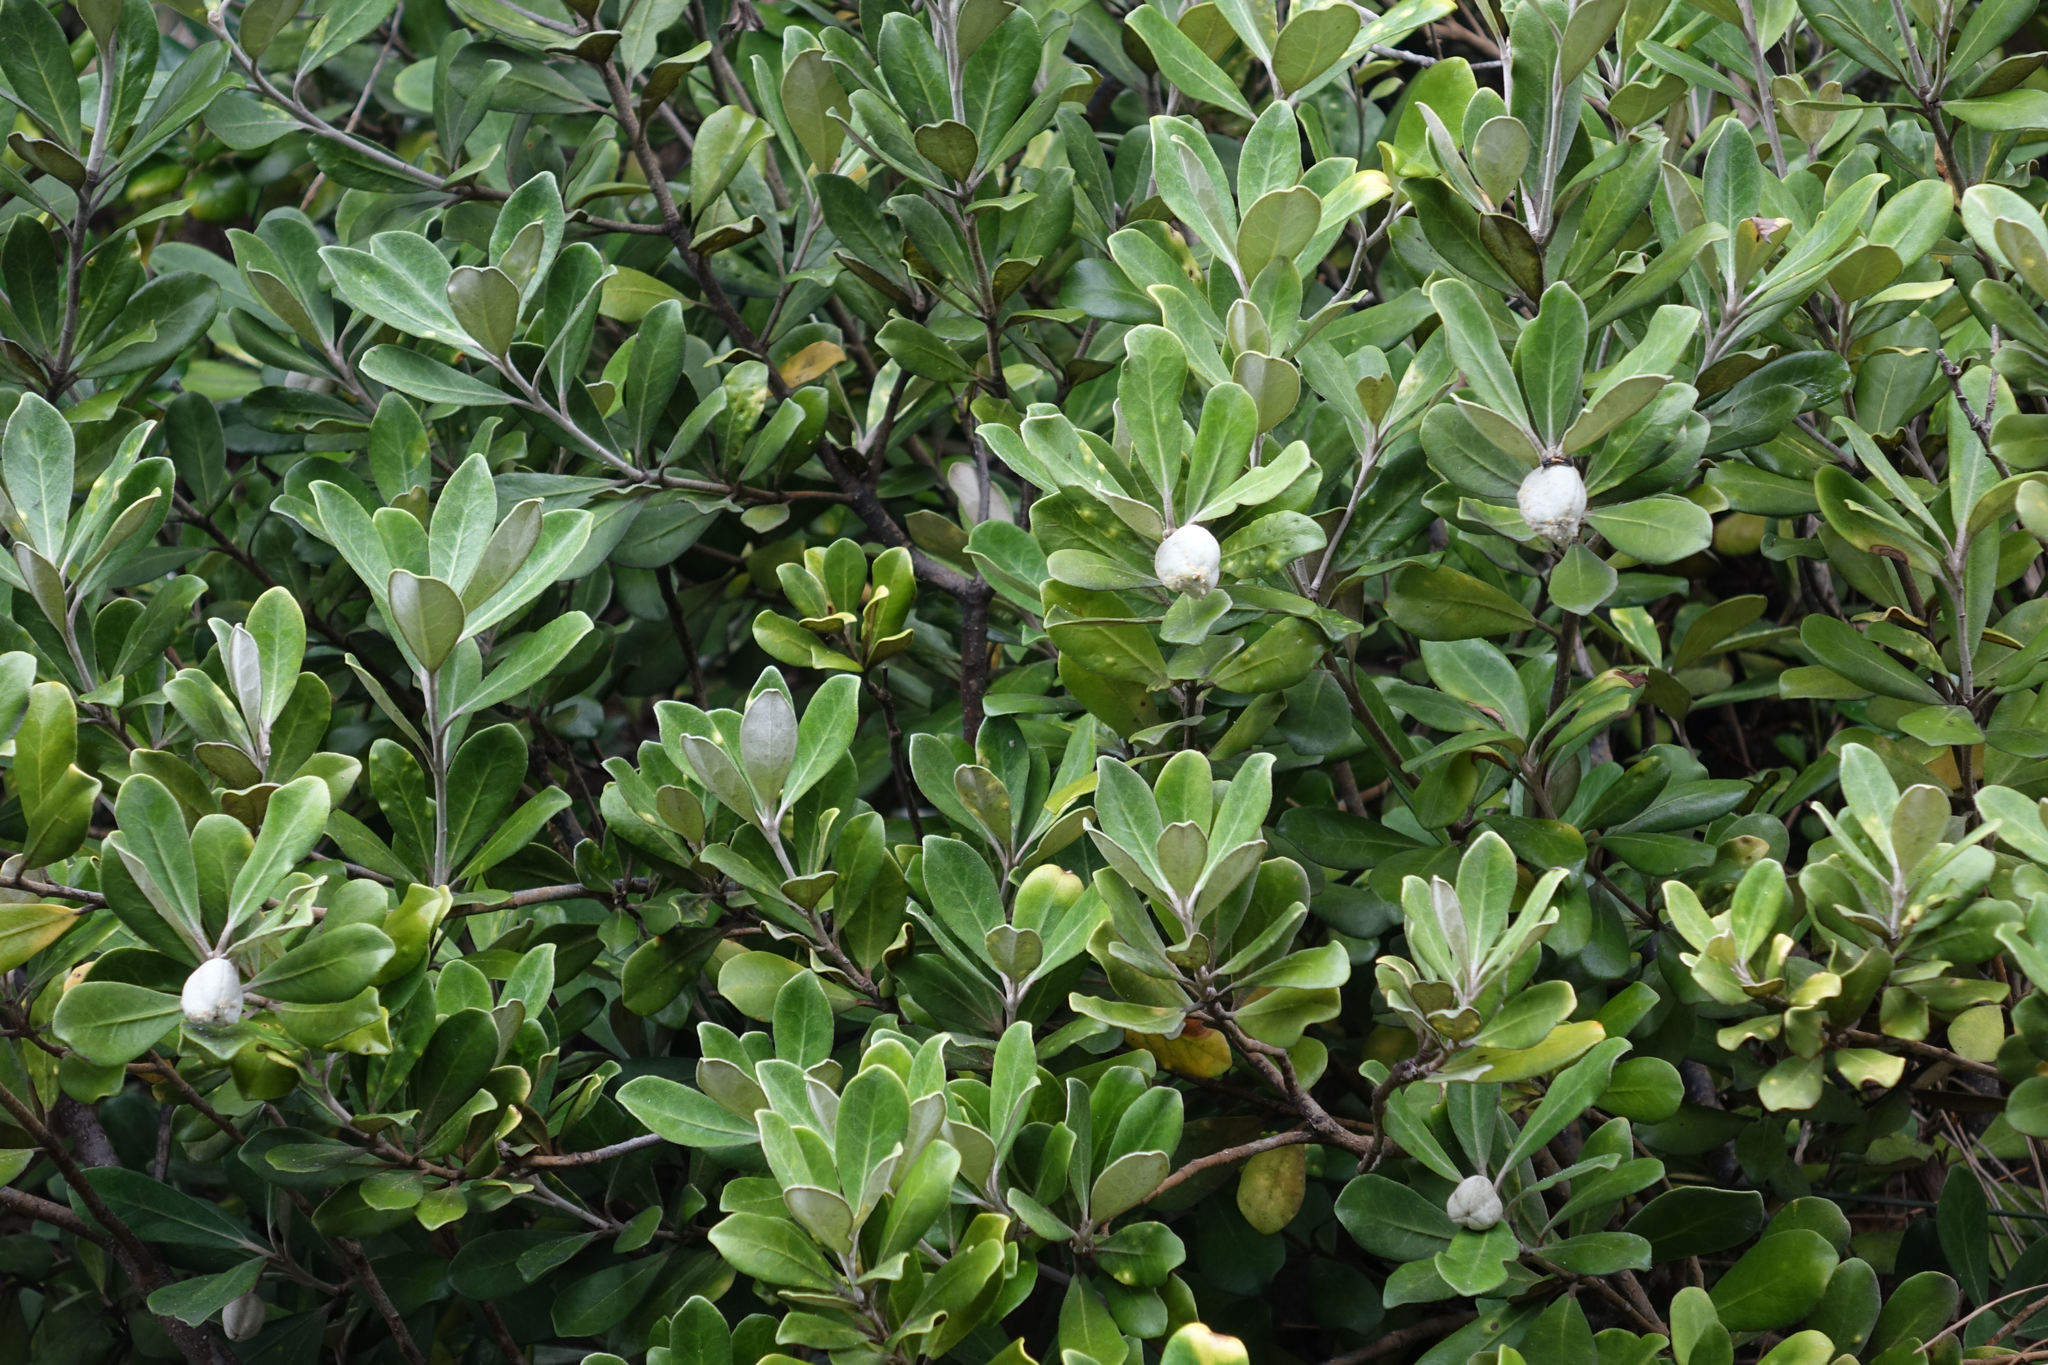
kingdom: Plantae
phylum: Tracheophyta
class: Magnoliopsida
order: Apiales
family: Pittosporaceae
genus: Pittosporum
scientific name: Pittosporum crassifolium
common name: Karo
